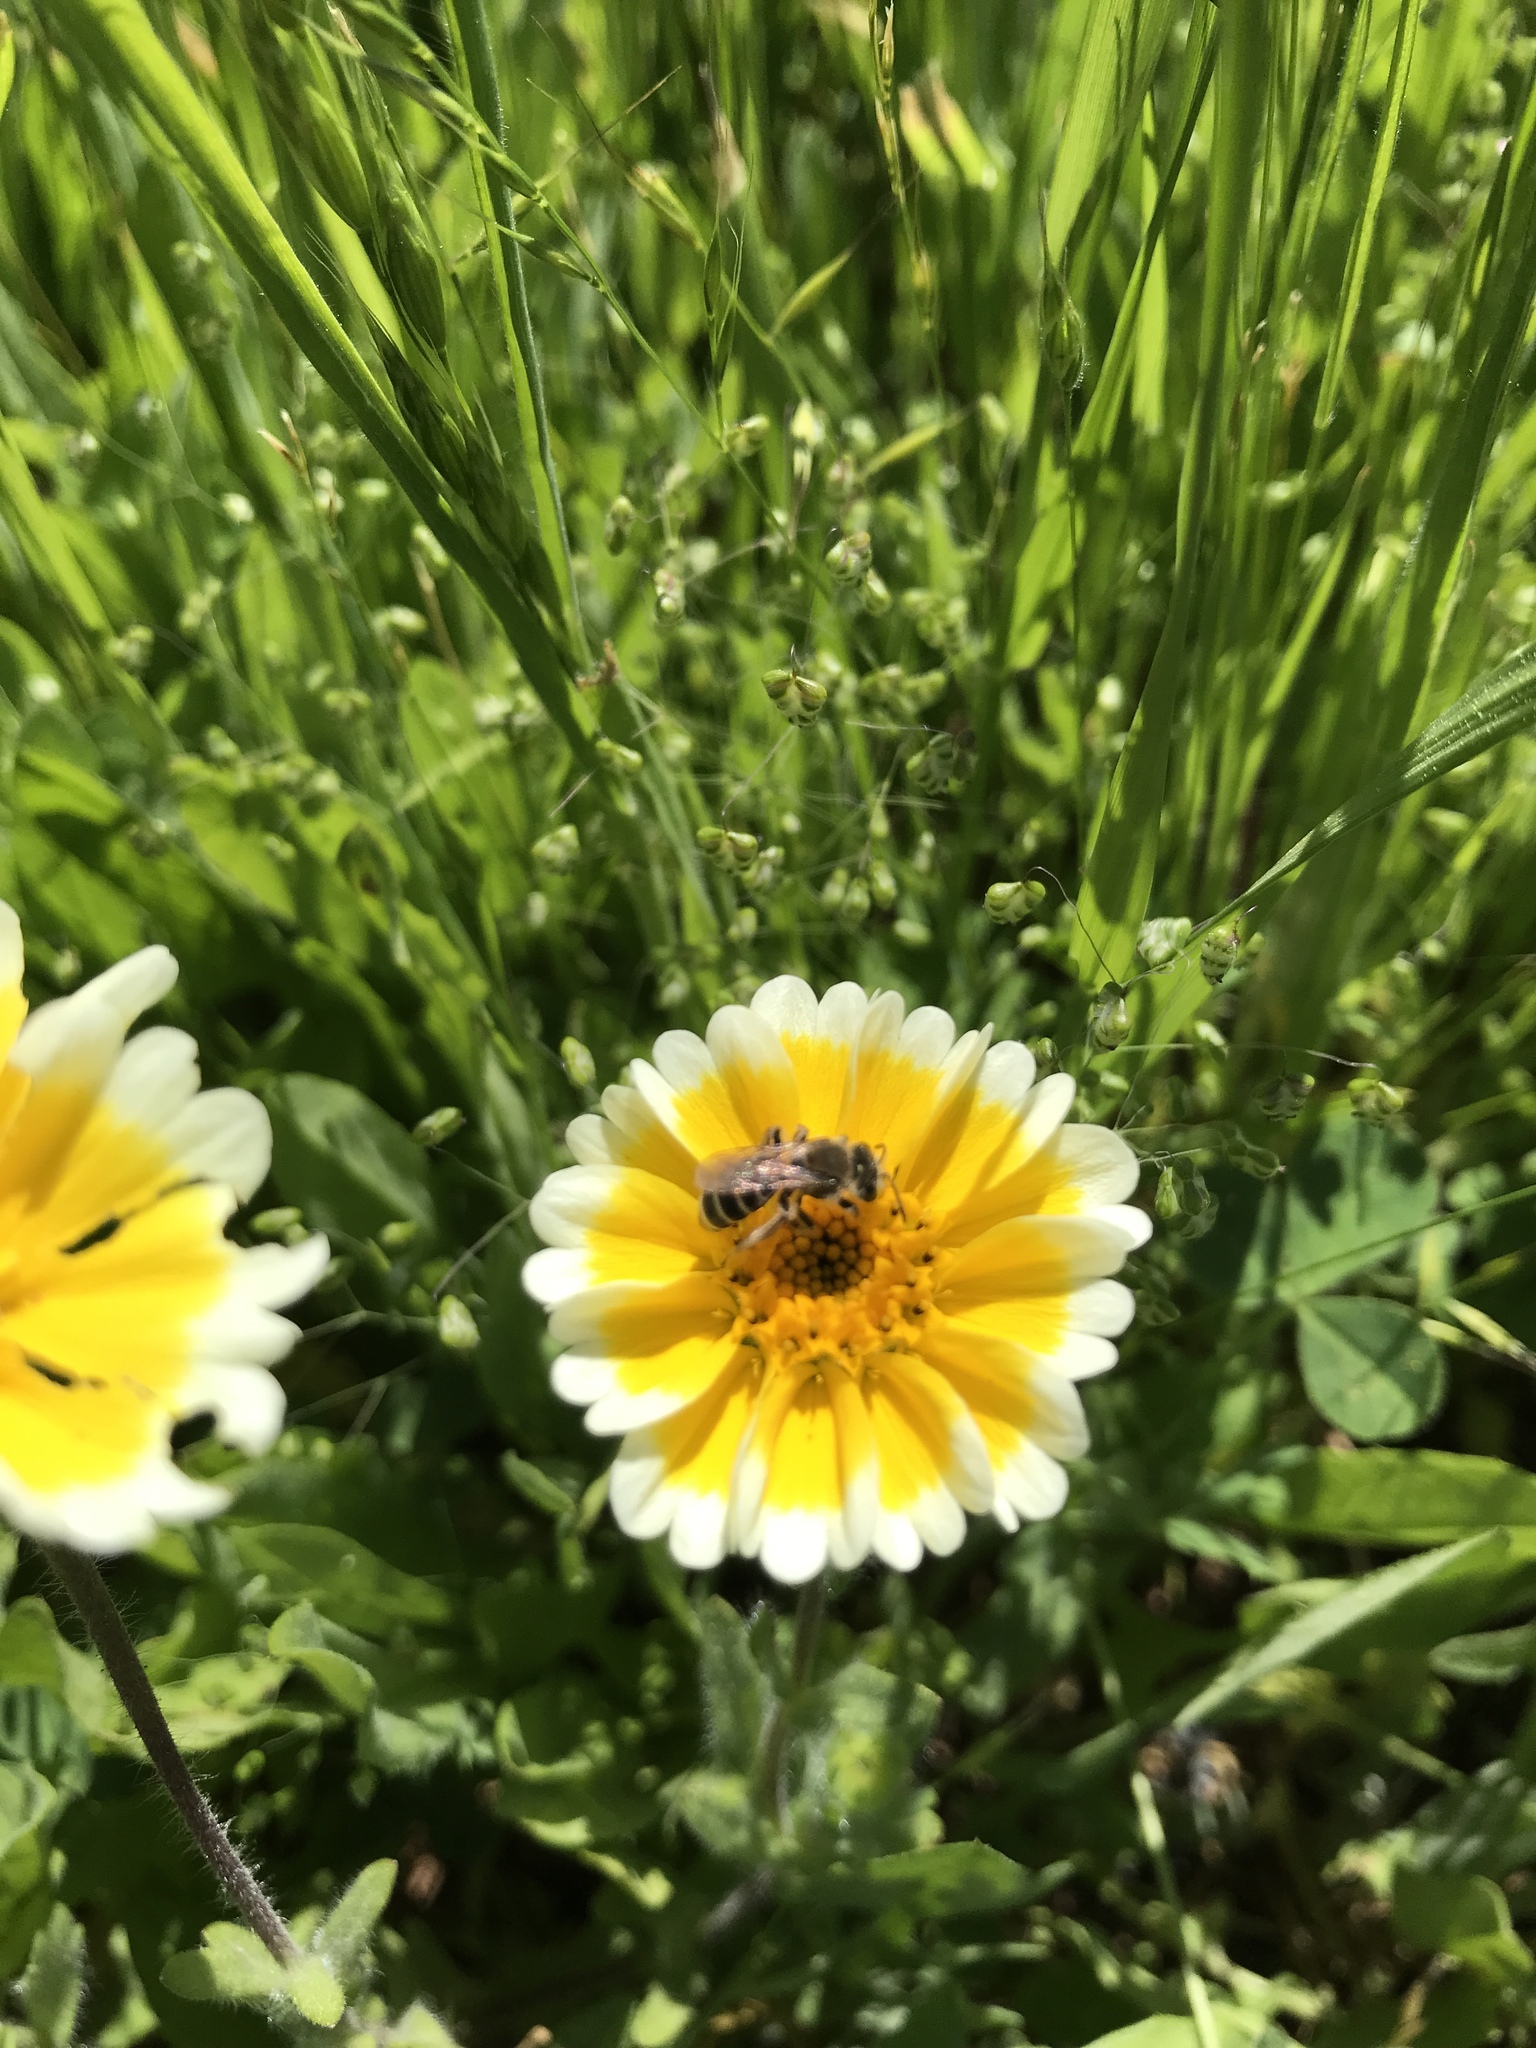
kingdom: Animalia
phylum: Arthropoda
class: Insecta
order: Hymenoptera
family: Halictidae
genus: Halictus
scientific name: Halictus ligatus
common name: Ligated furrow bee
